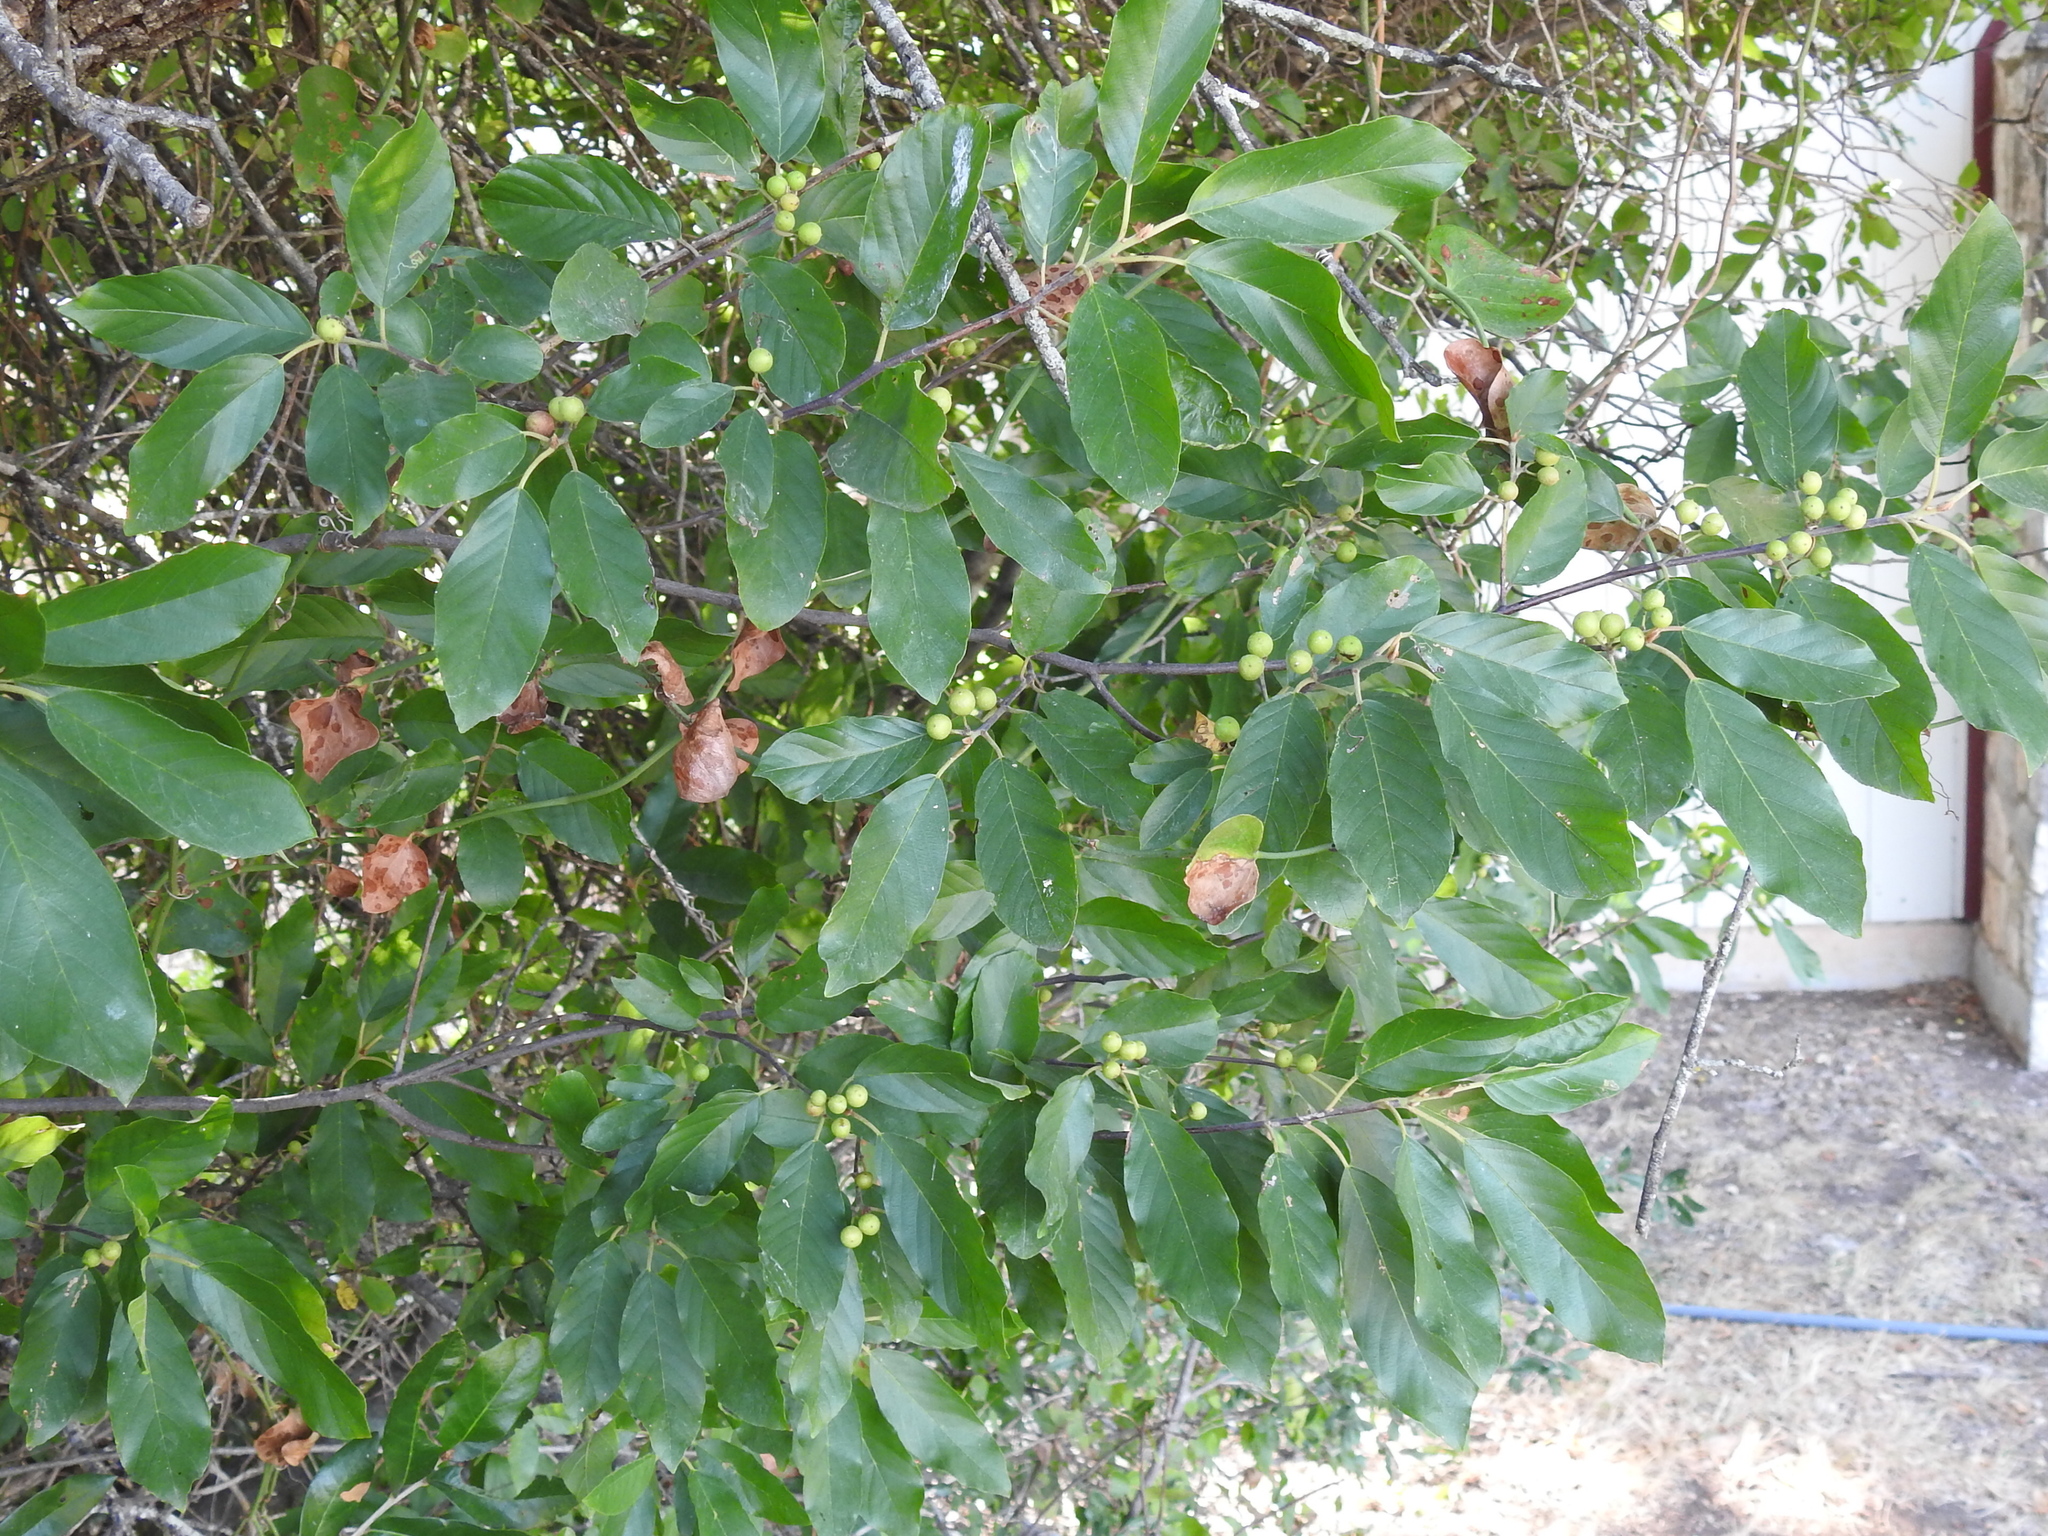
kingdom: Plantae
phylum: Tracheophyta
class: Magnoliopsida
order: Rosales
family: Rhamnaceae
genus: Frangula
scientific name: Frangula caroliniana
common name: Carolina buckthorn
